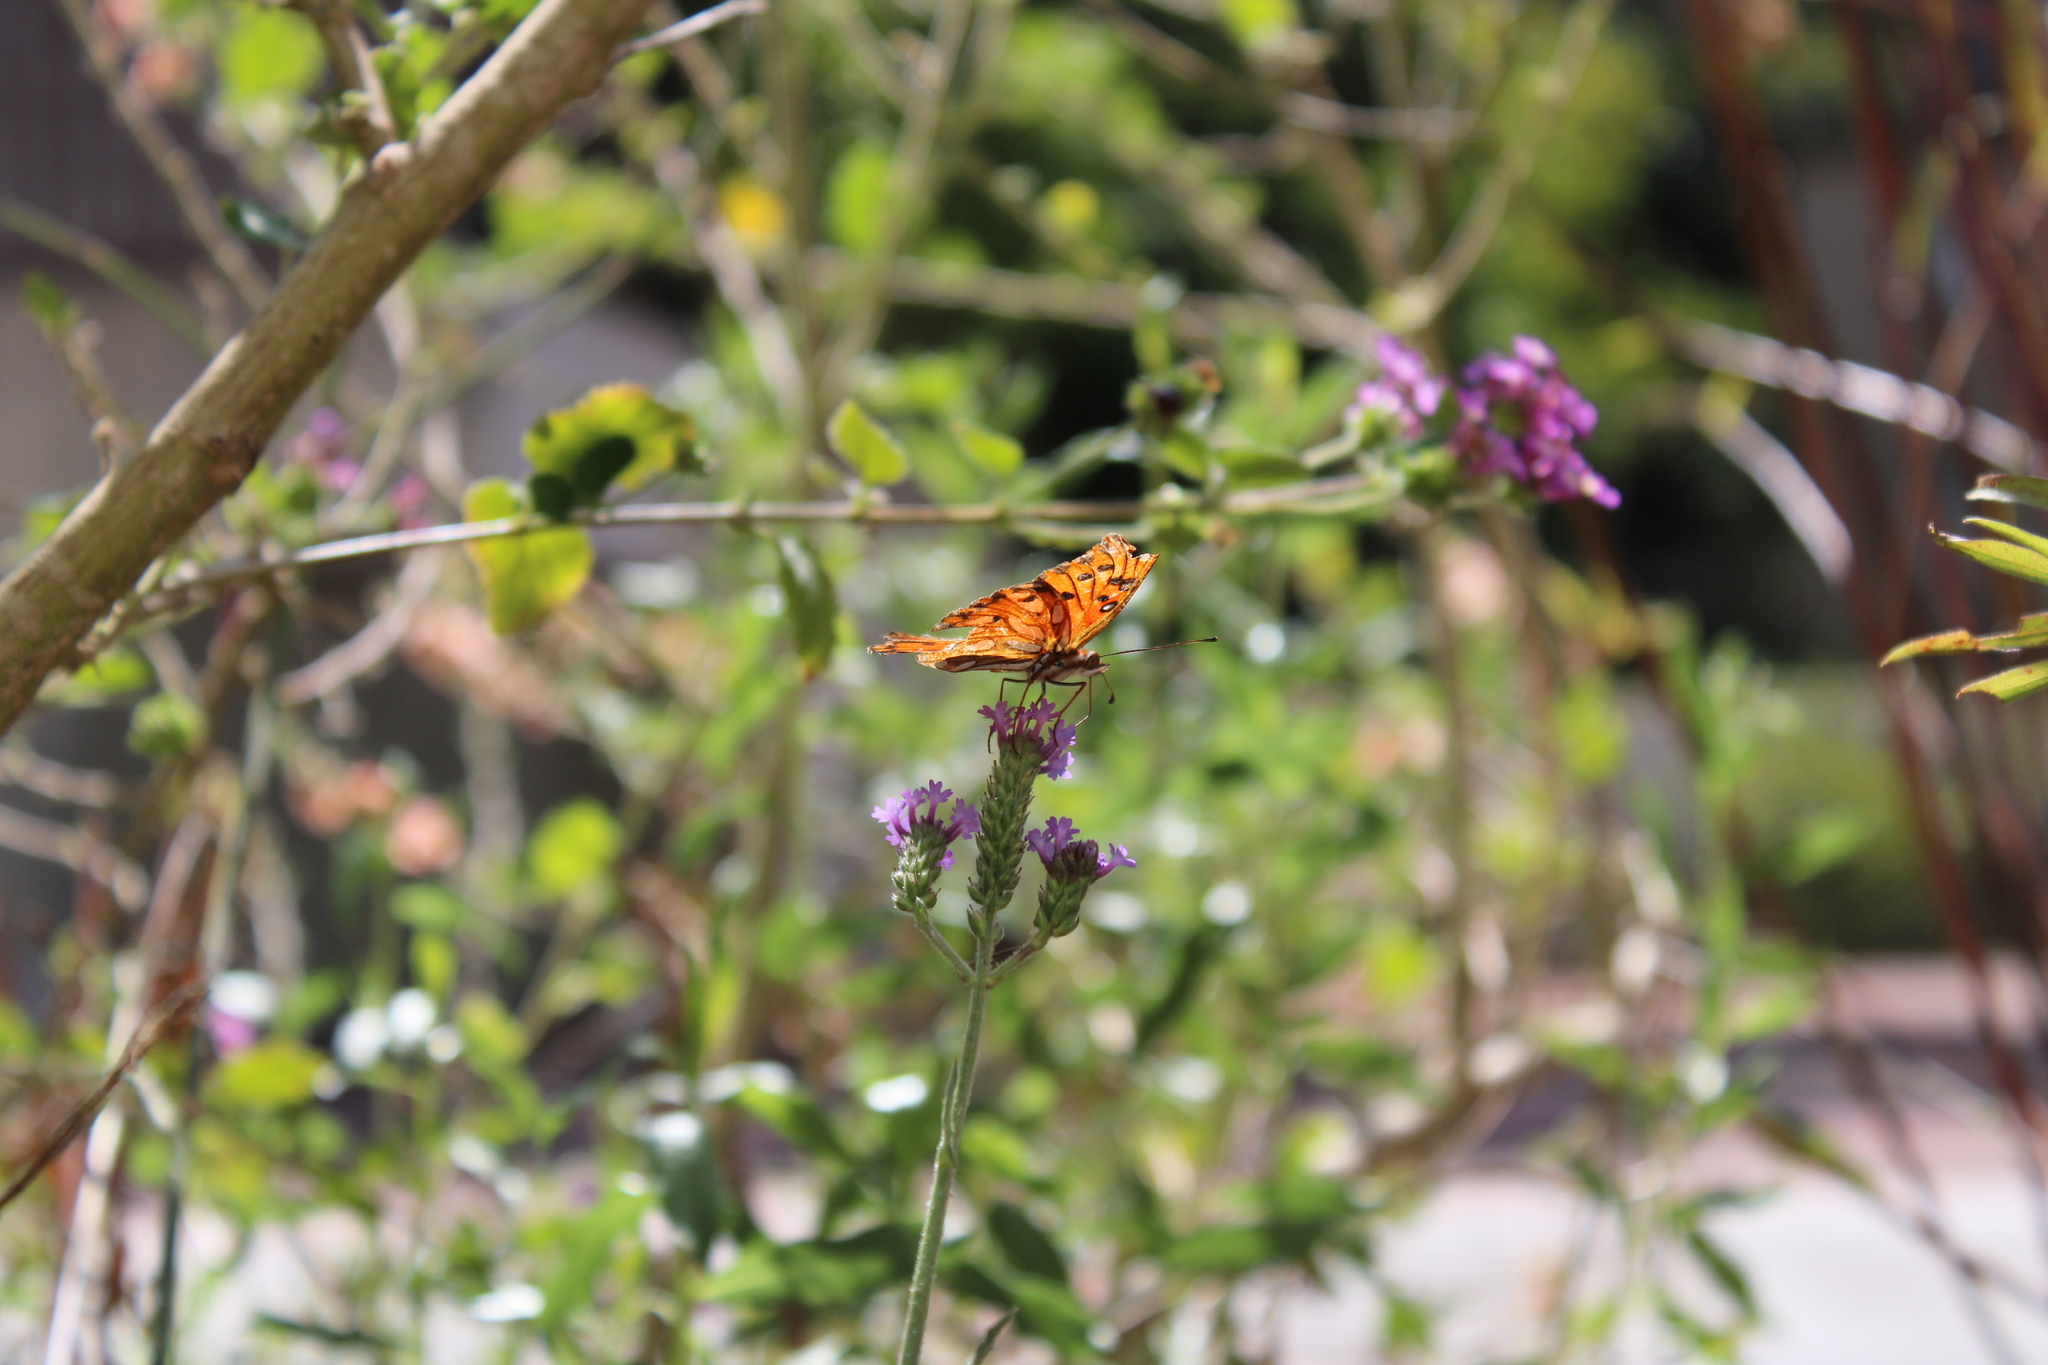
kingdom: Animalia
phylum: Arthropoda
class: Insecta
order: Lepidoptera
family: Nymphalidae
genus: Dione
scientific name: Dione vanillae
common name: Gulf fritillary
